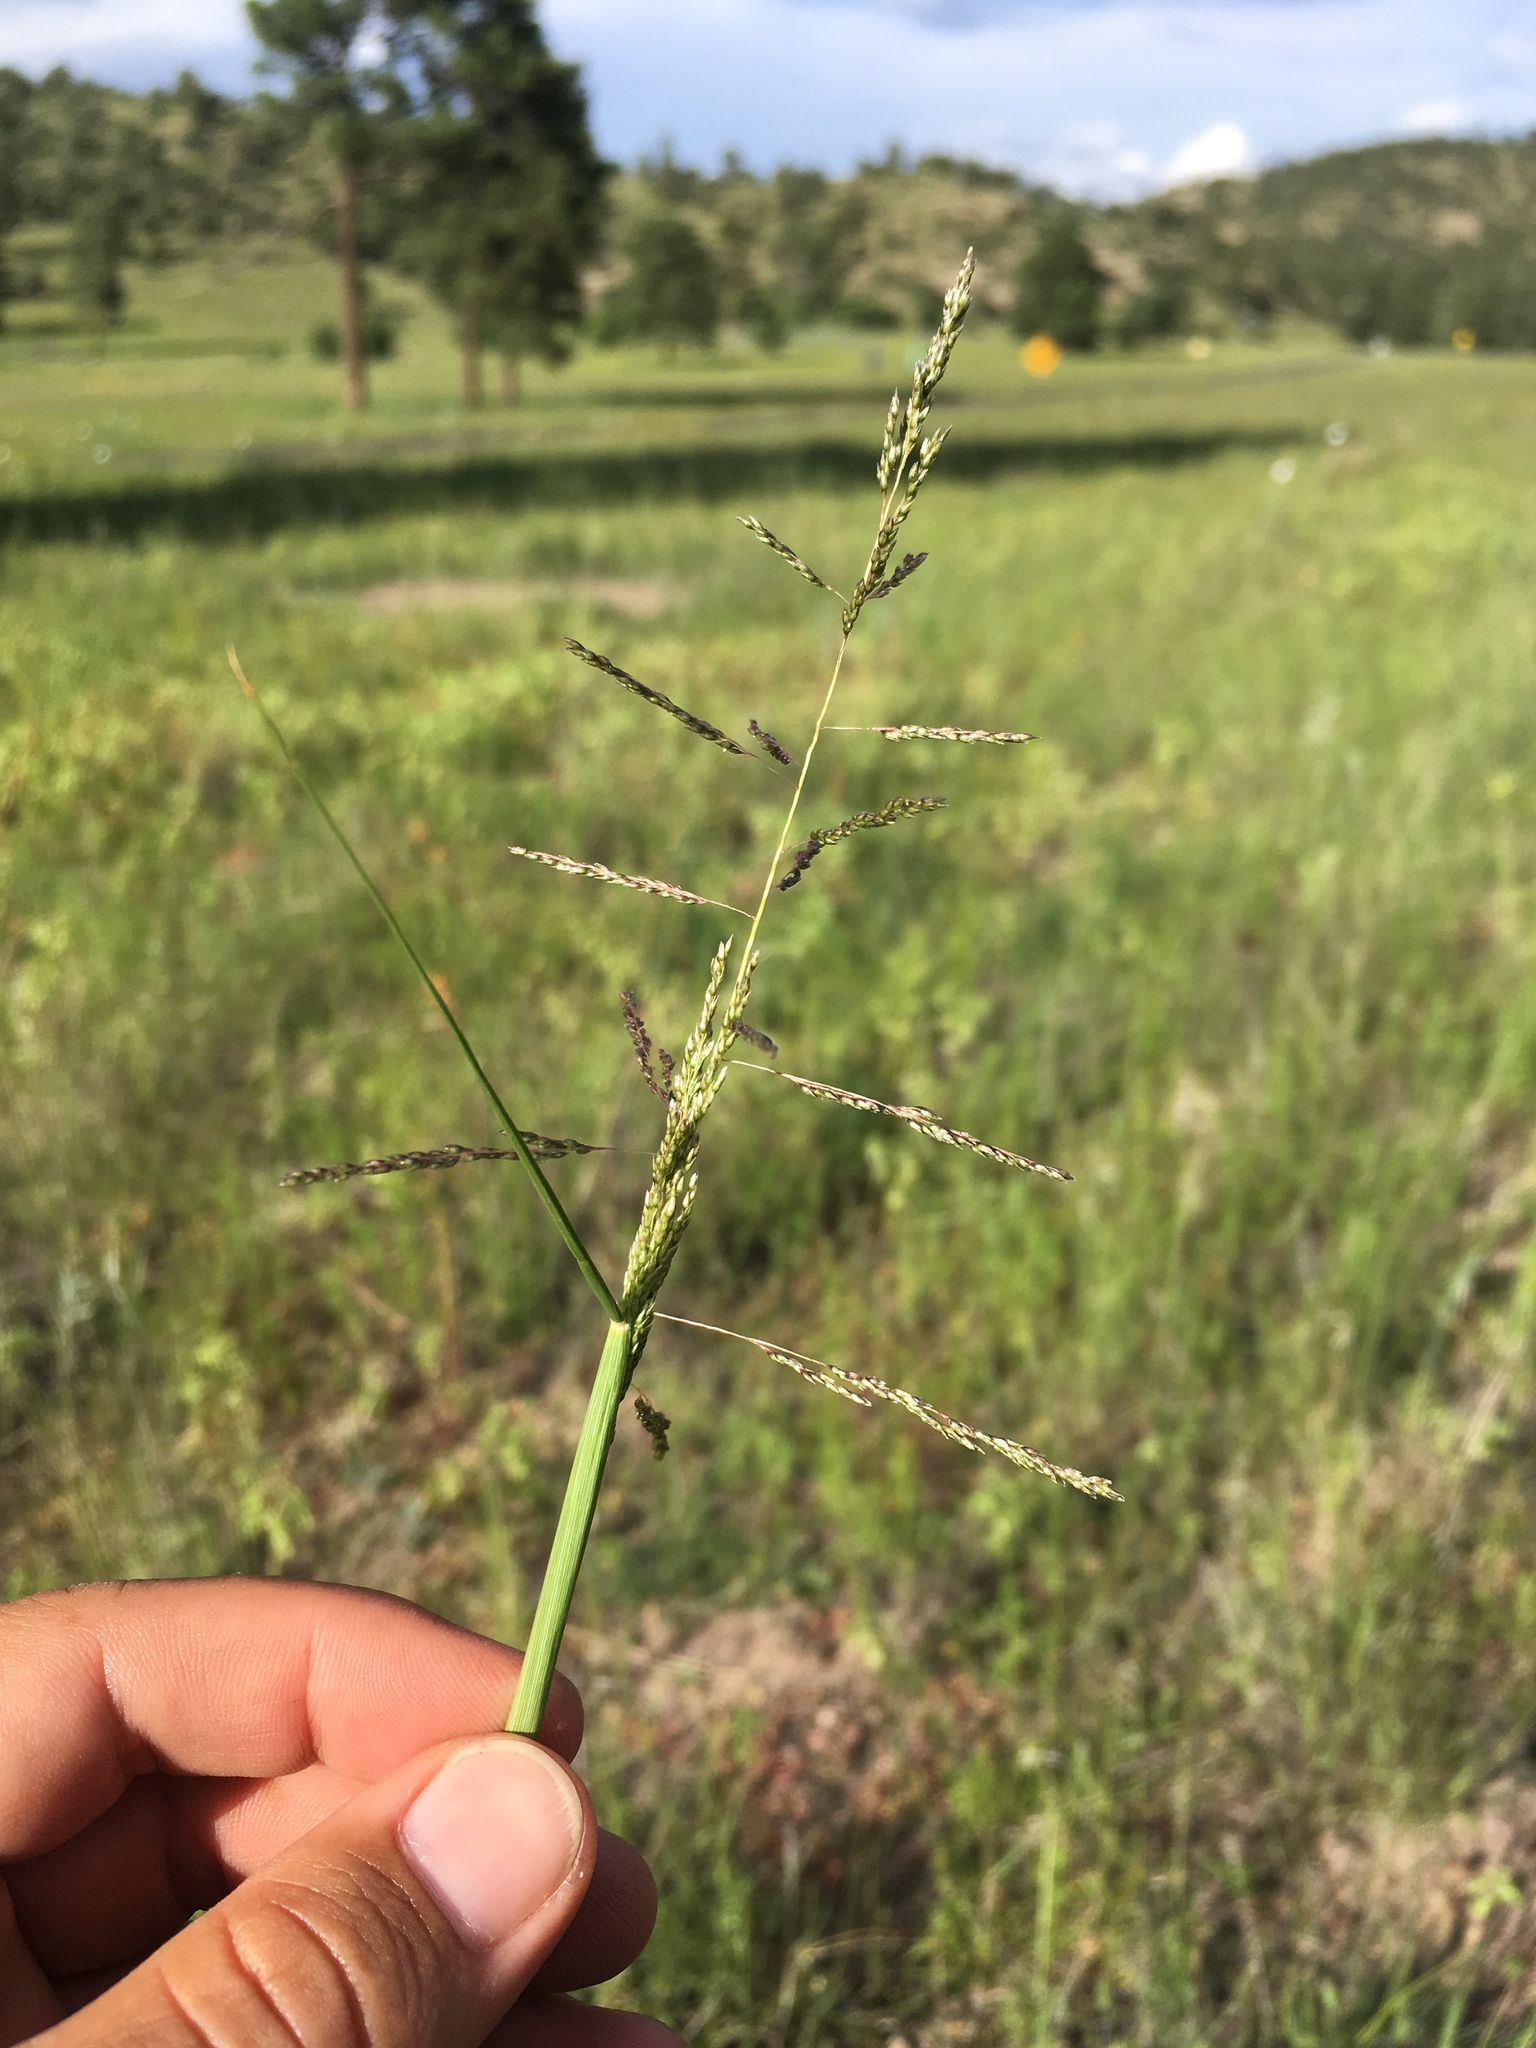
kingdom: Plantae
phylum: Tracheophyta
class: Liliopsida
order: Poales
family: Poaceae
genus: Sporobolus
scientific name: Sporobolus cryptandrus
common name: Sand dropseed
